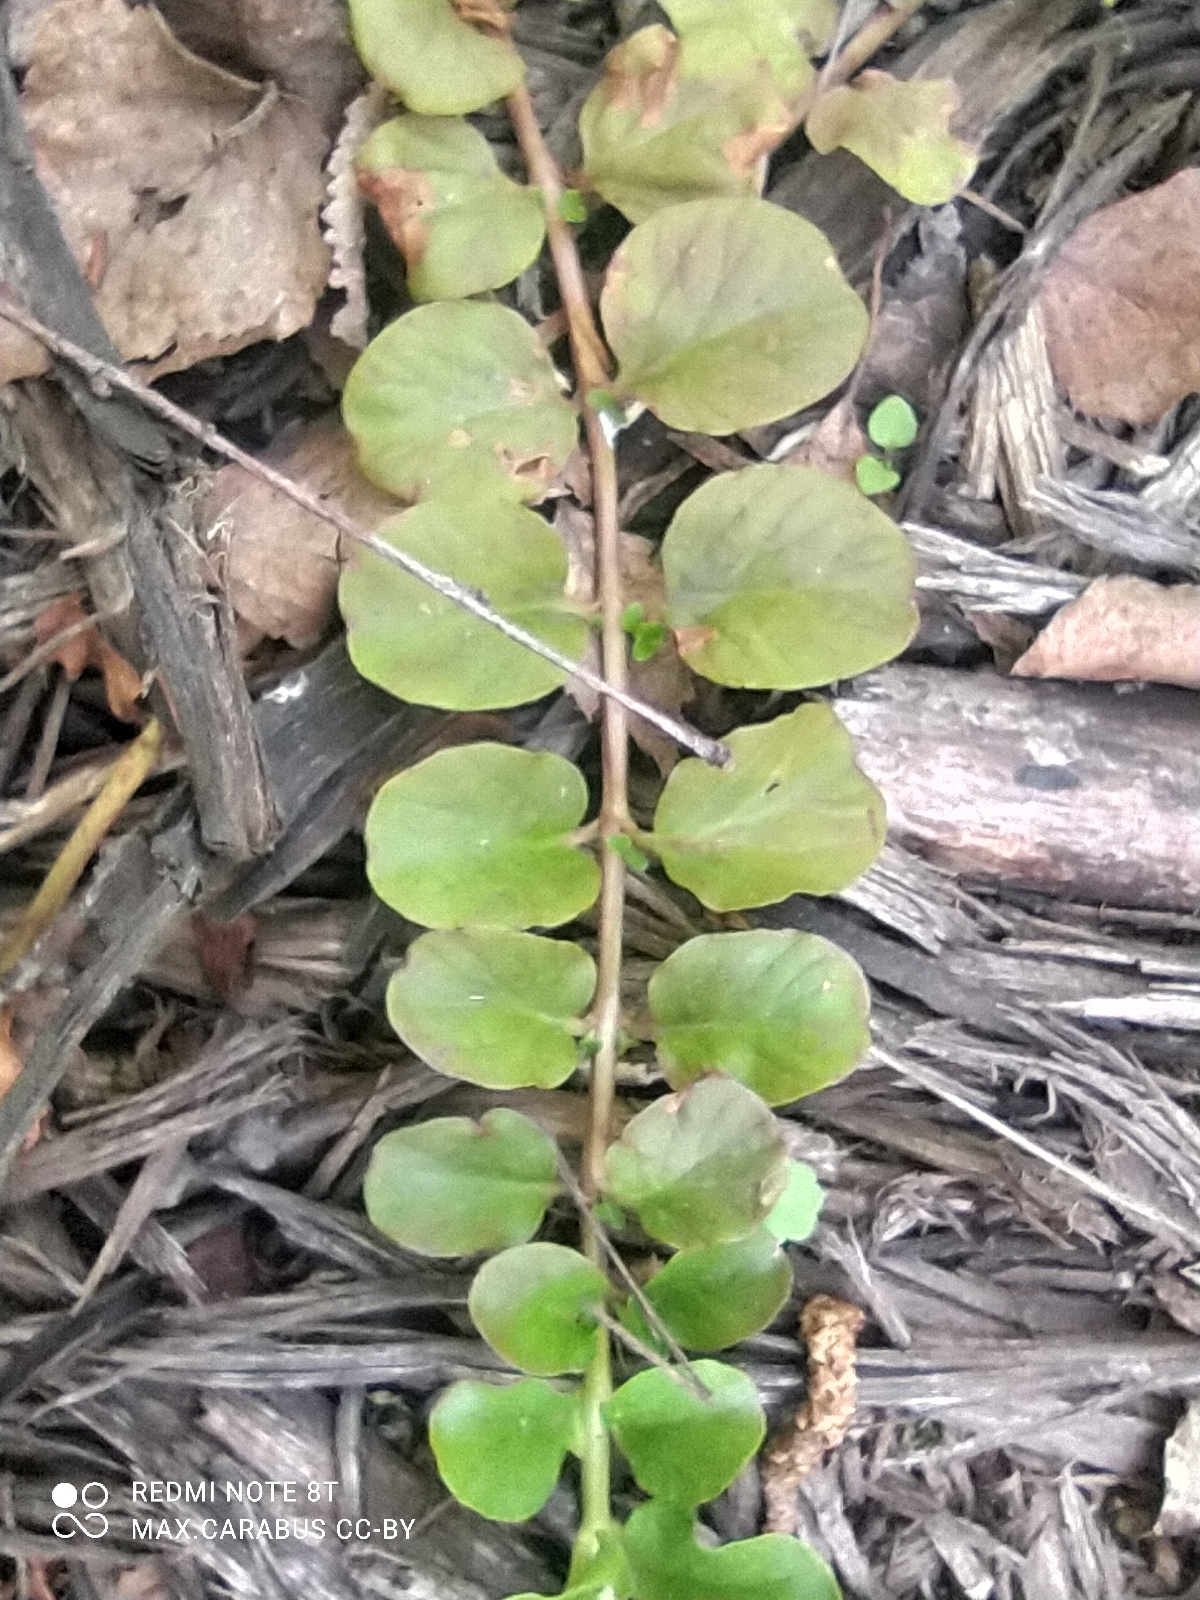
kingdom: Plantae
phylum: Tracheophyta
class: Magnoliopsida
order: Ericales
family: Primulaceae
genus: Lysimachia
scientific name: Lysimachia nummularia
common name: Moneywort
